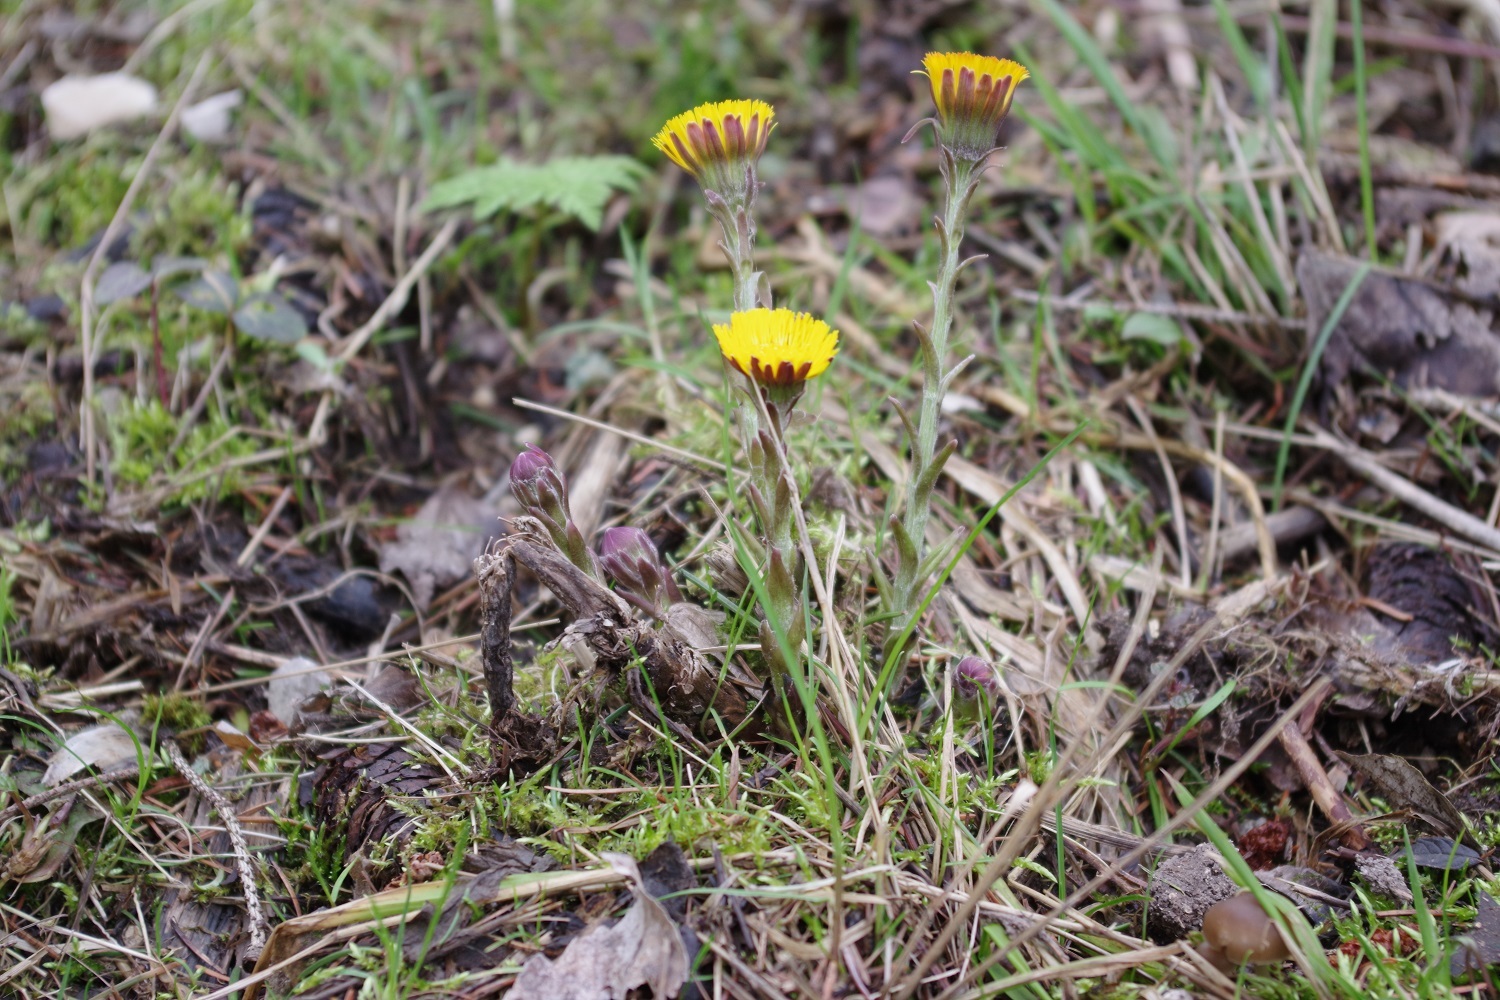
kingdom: Plantae
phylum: Tracheophyta
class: Magnoliopsida
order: Asterales
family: Asteraceae
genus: Tussilago
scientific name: Tussilago farfara
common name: Coltsfoot
